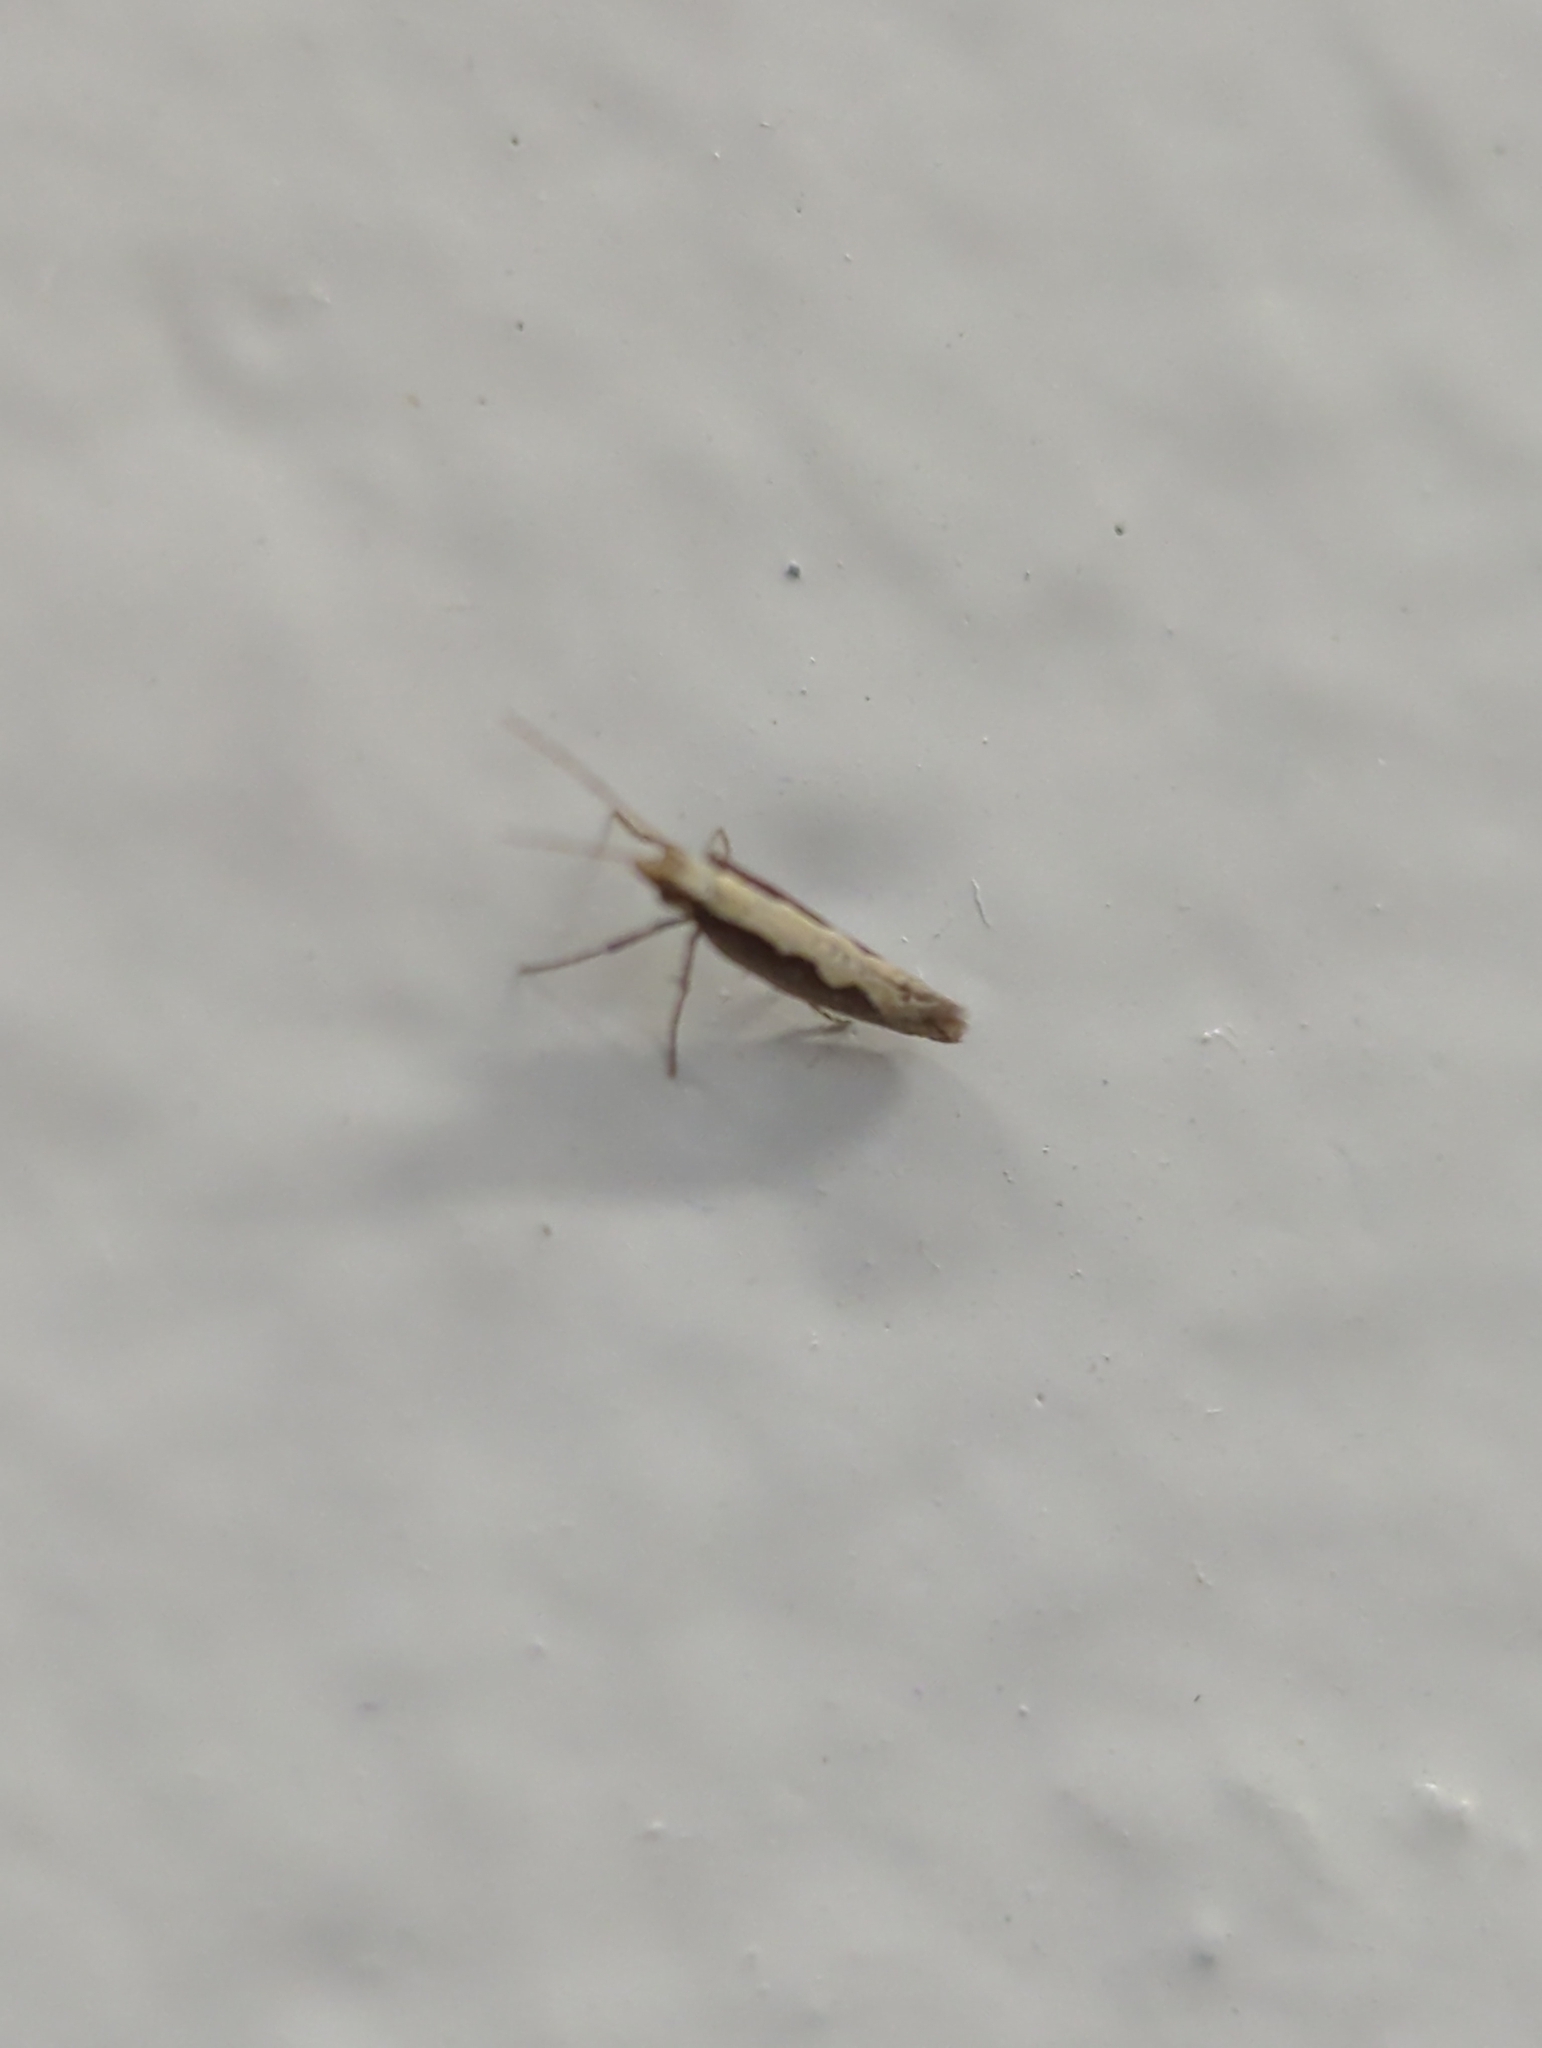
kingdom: Animalia
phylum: Arthropoda
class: Insecta
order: Lepidoptera
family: Plutellidae
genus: Plutella
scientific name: Plutella xylostella
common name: Diamond-back moth
